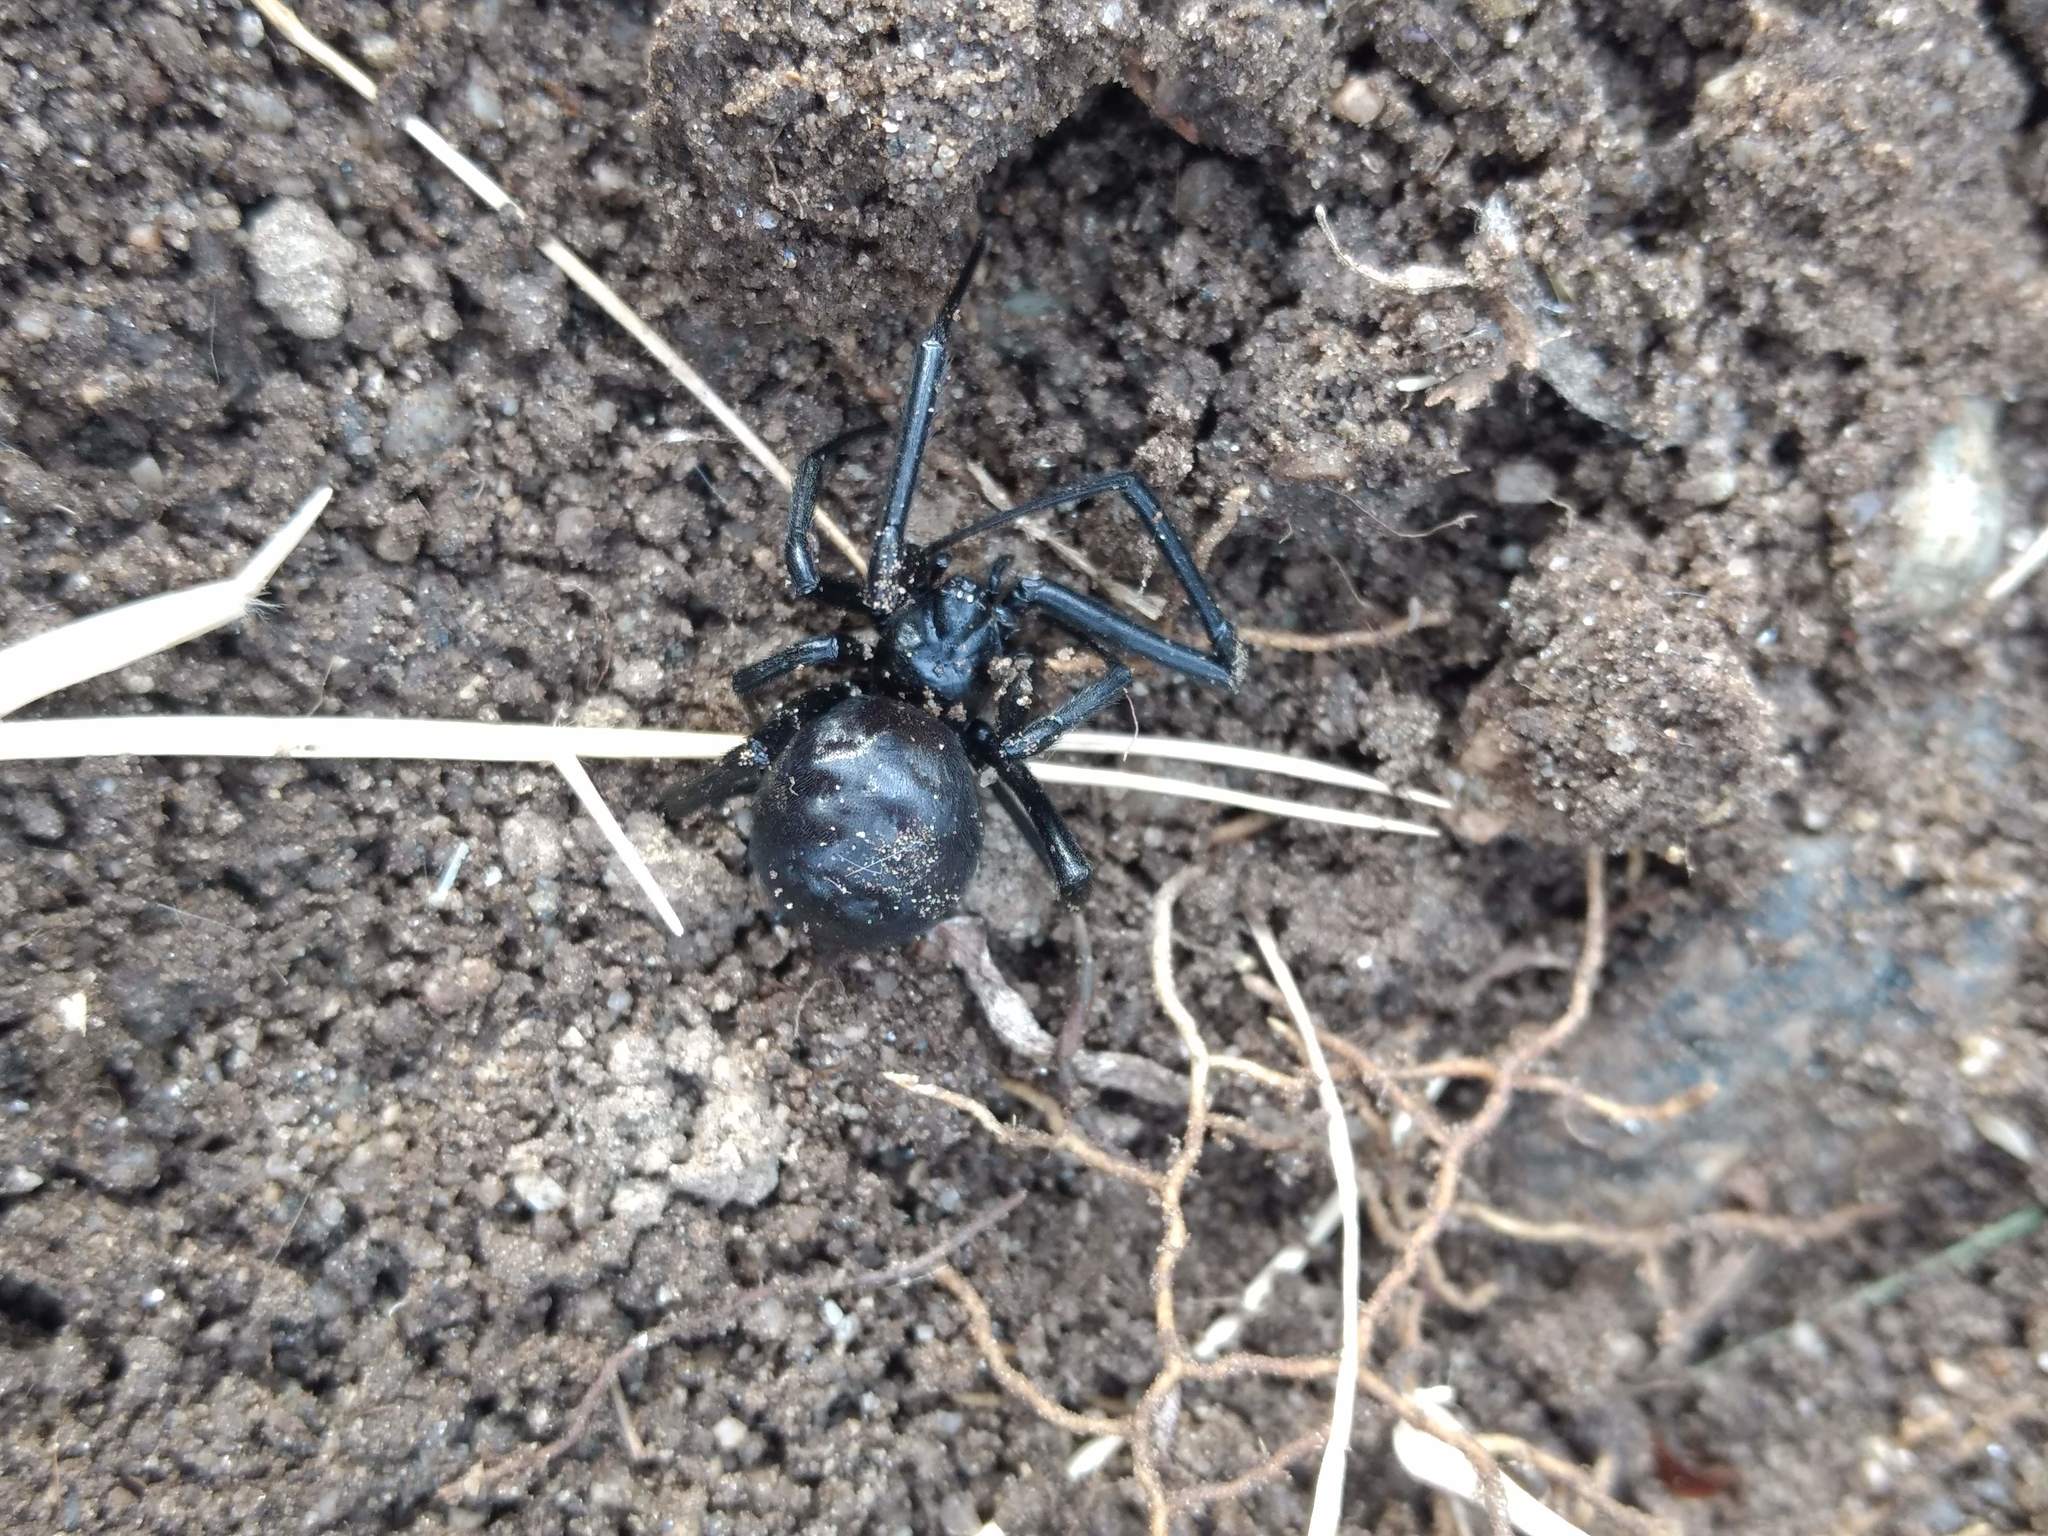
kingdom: Animalia
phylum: Arthropoda
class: Arachnida
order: Araneae
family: Theridiidae
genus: Latrodectus
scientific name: Latrodectus hesperus
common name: Western black widow
